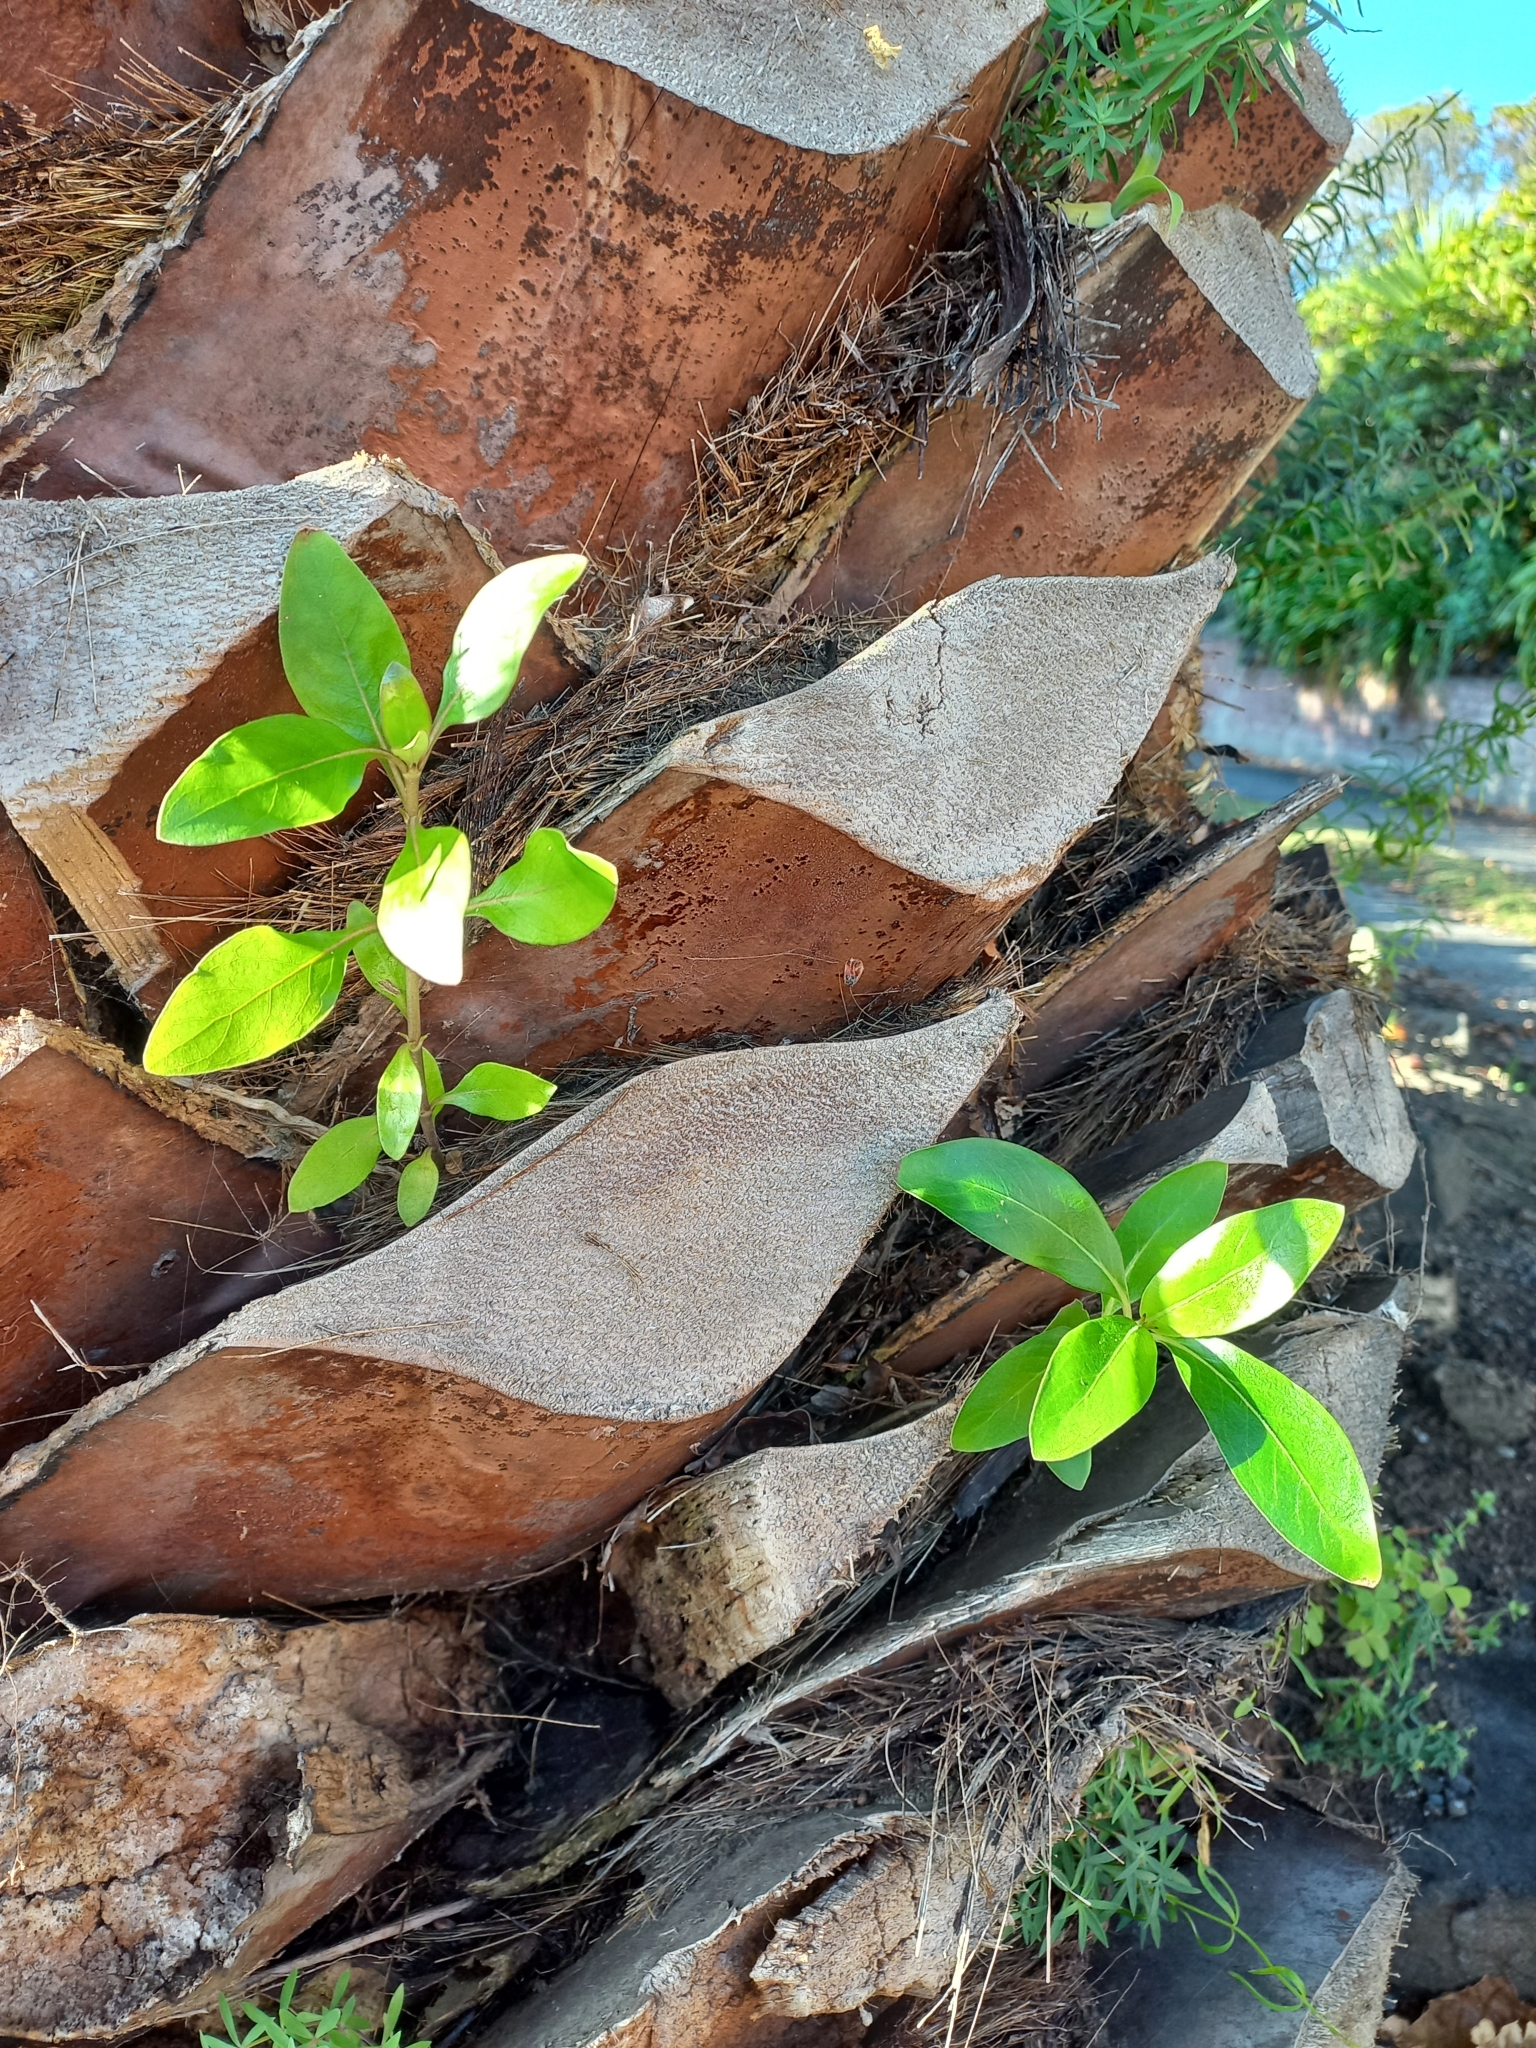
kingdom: Plantae
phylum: Tracheophyta
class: Magnoliopsida
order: Gentianales
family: Rubiaceae
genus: Coprosma
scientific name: Coprosma robusta
